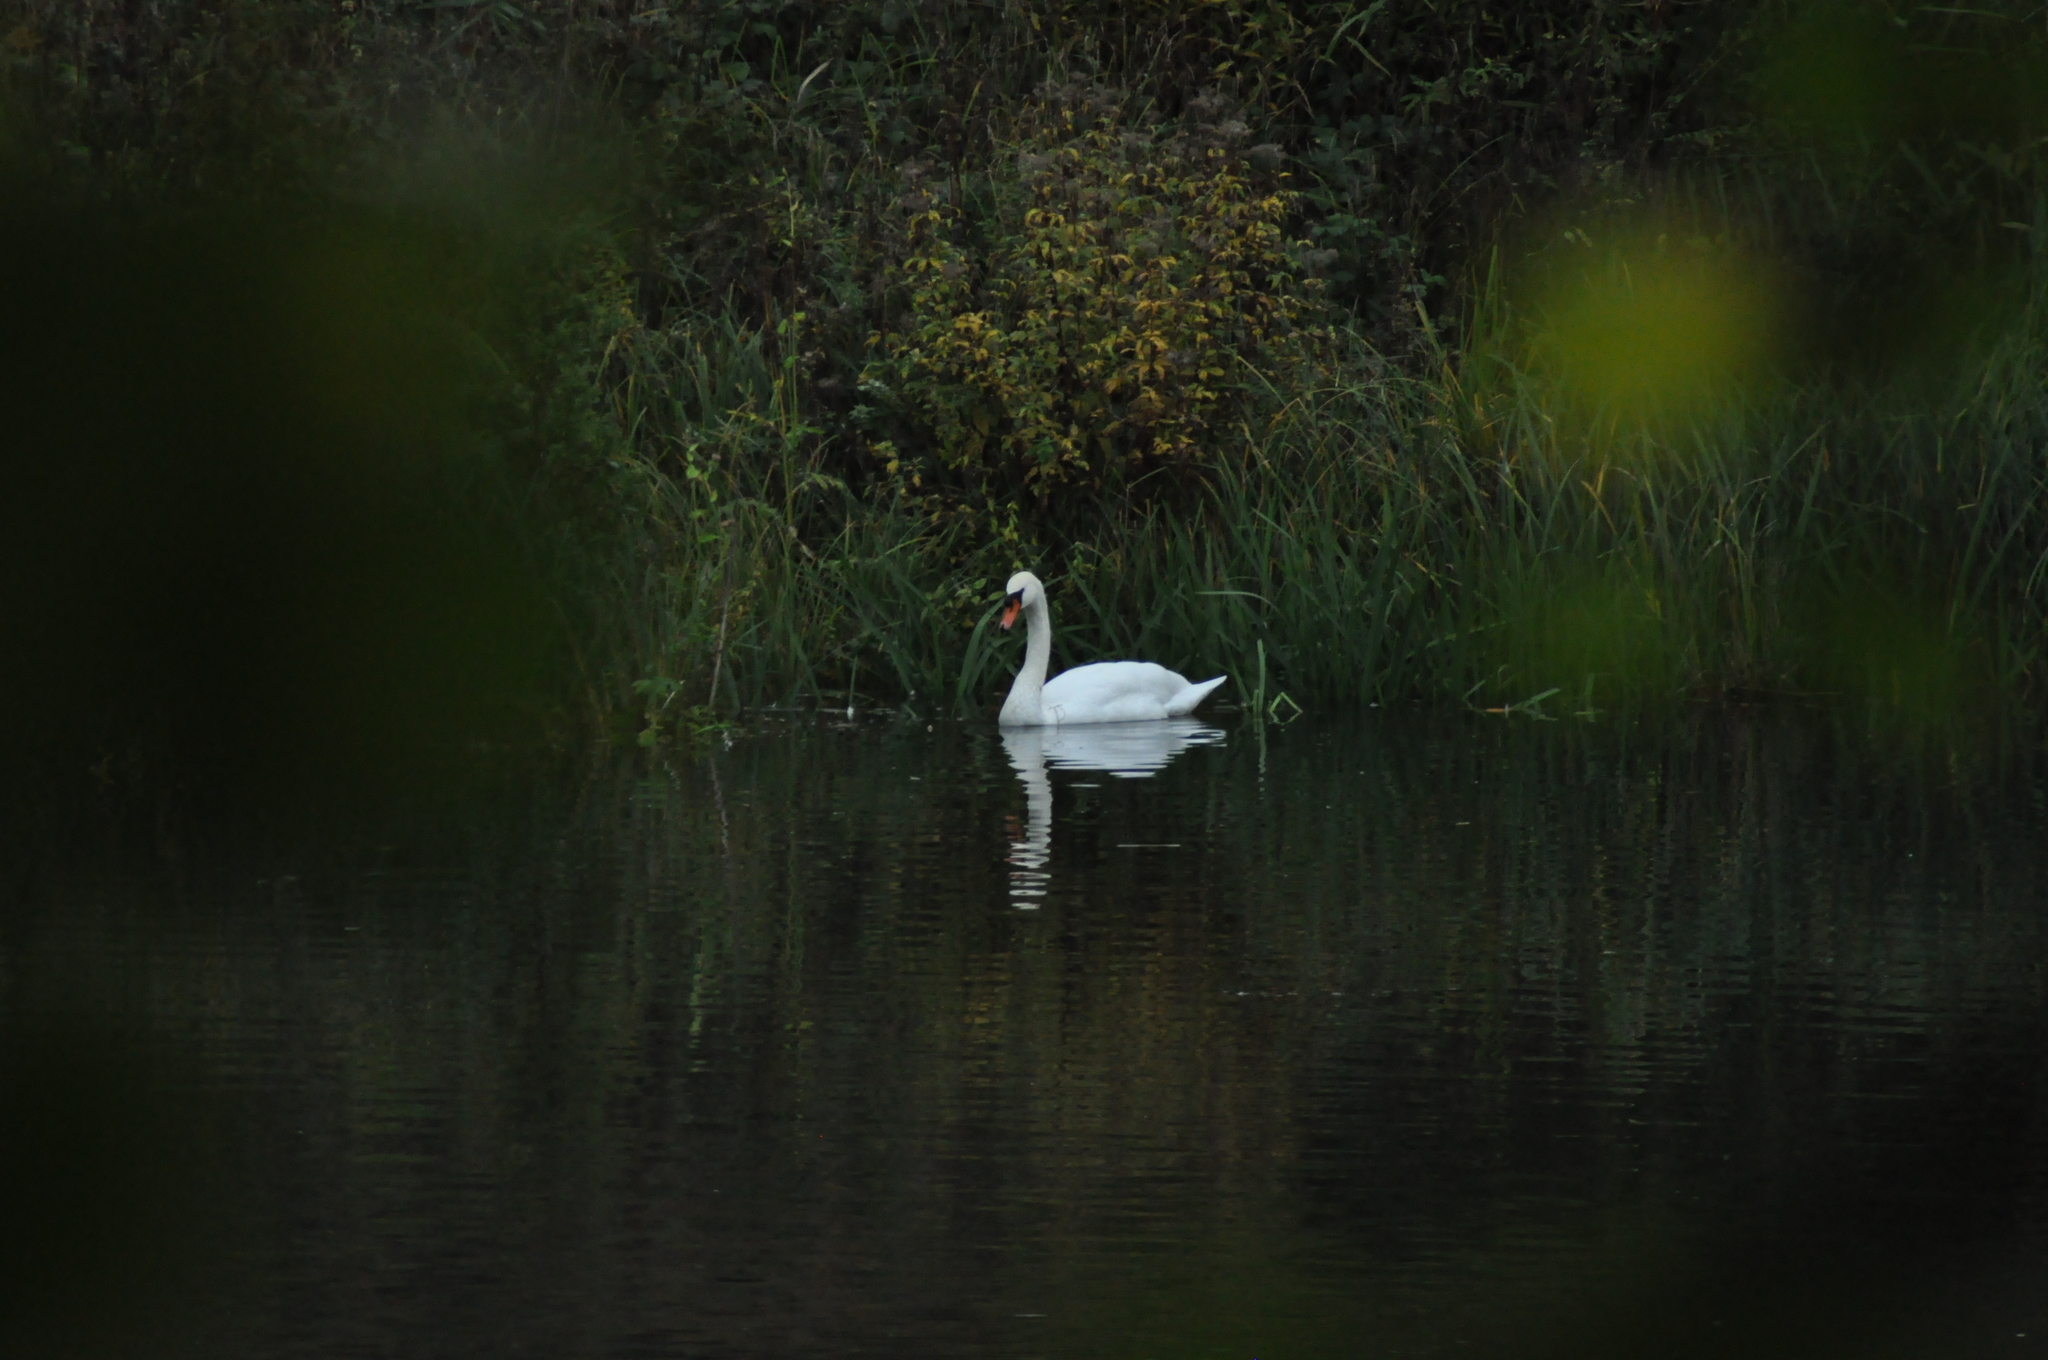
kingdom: Animalia
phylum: Chordata
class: Aves
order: Anseriformes
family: Anatidae
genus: Cygnus
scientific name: Cygnus olor
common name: Mute swan
